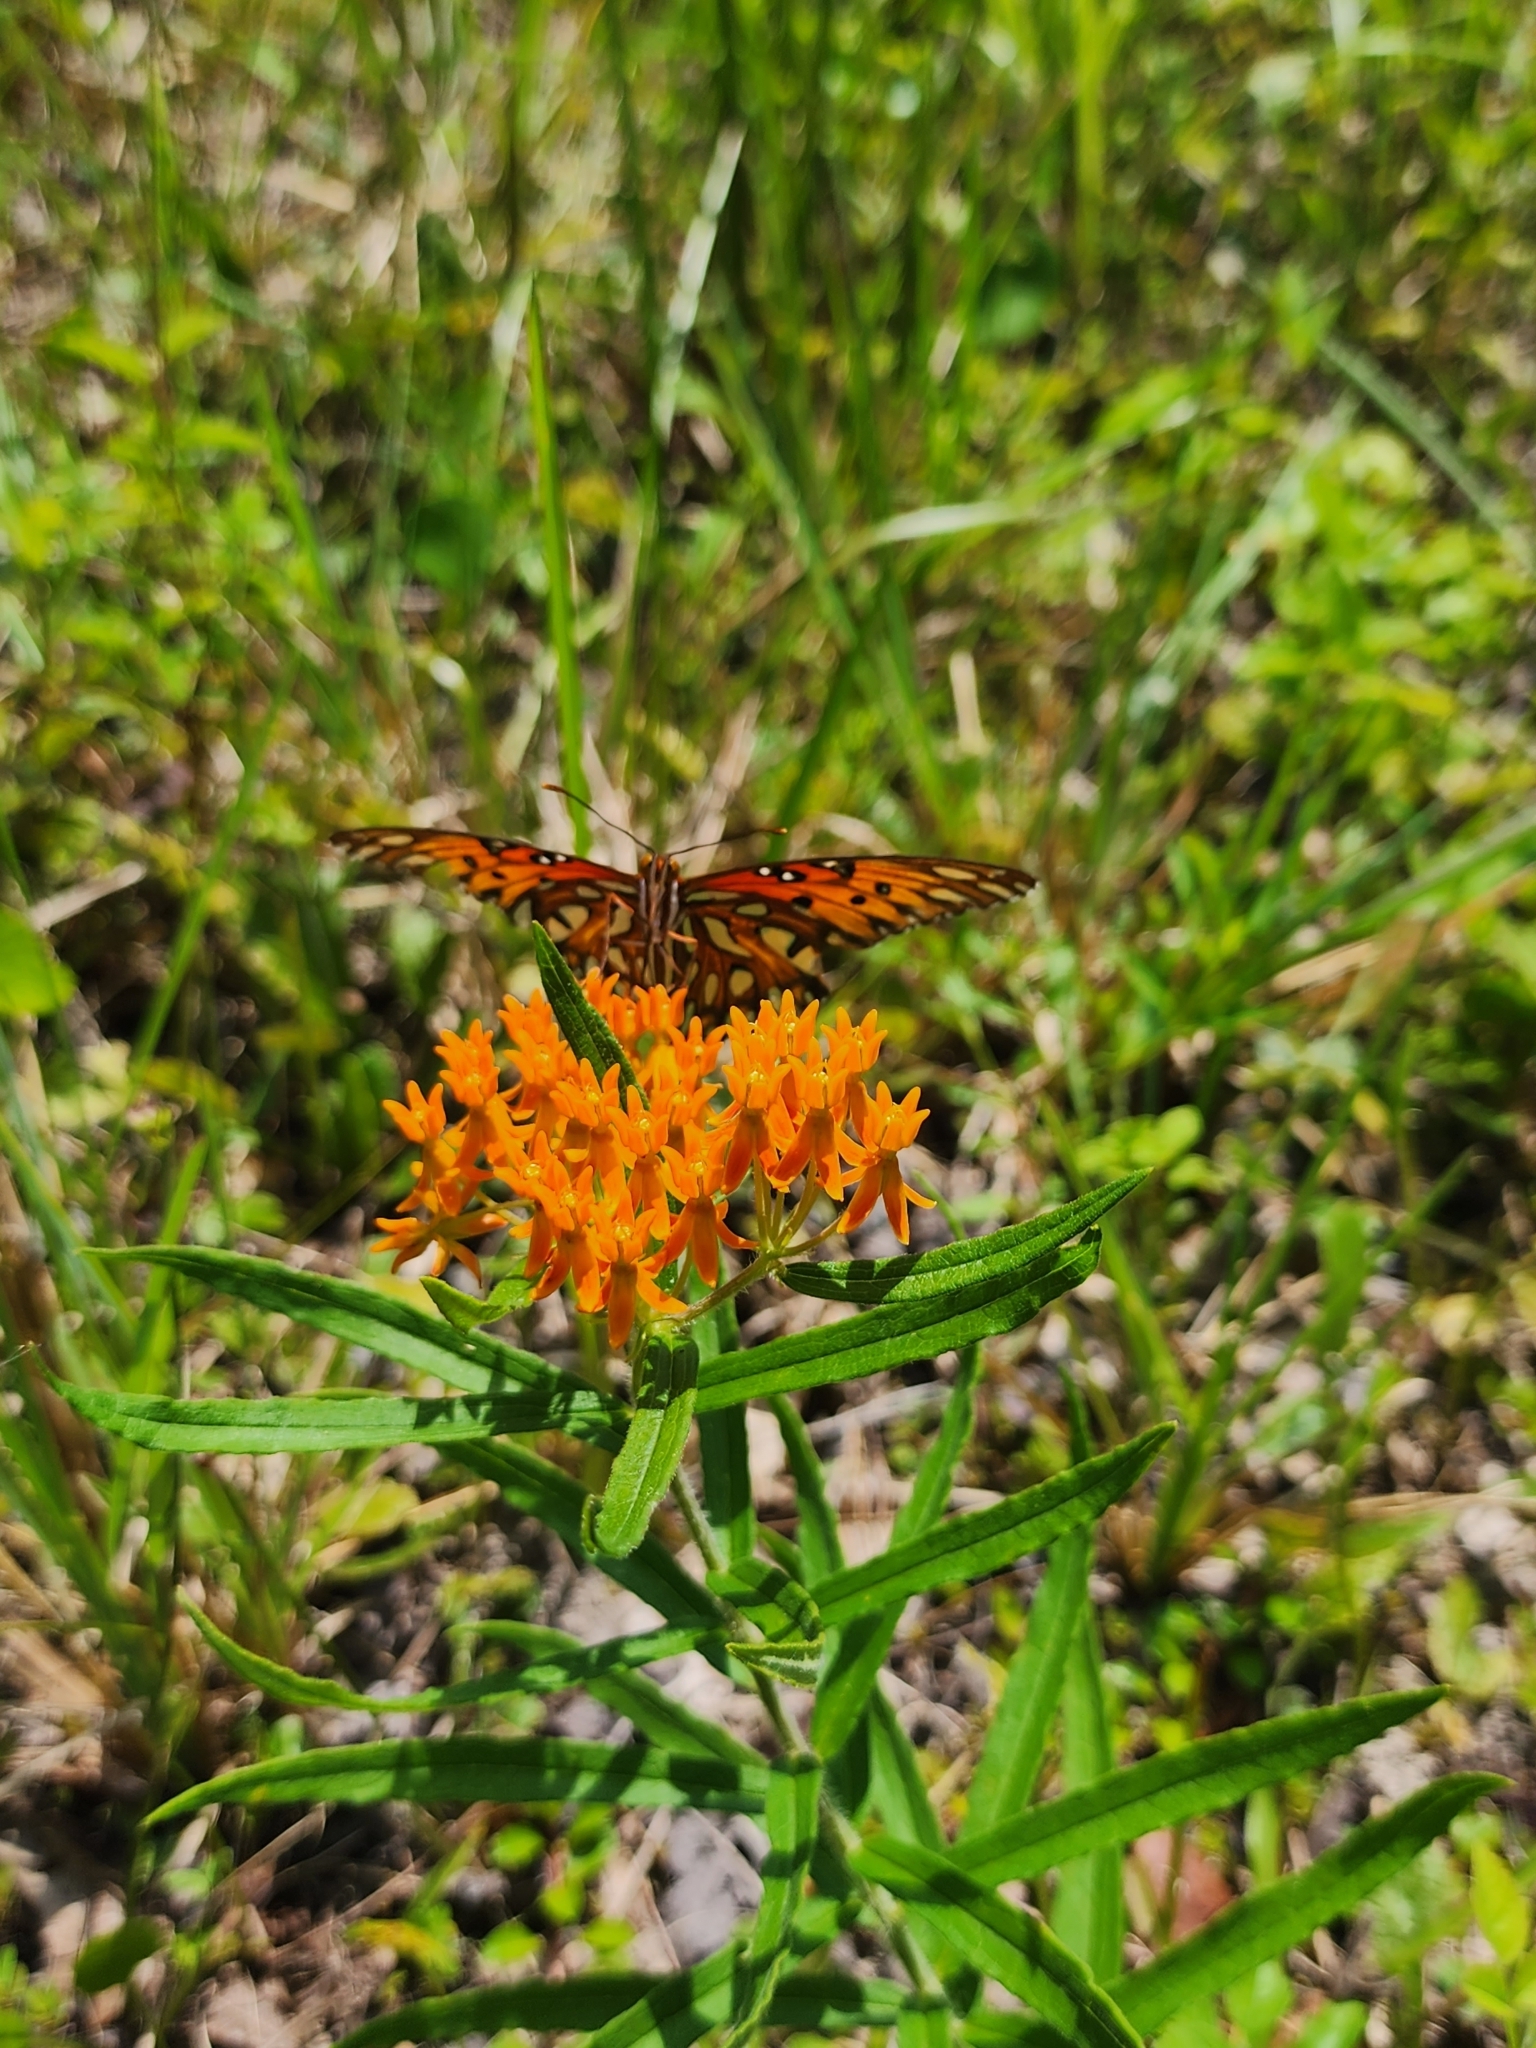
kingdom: Plantae
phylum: Tracheophyta
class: Magnoliopsida
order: Gentianales
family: Apocynaceae
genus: Asclepias
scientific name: Asclepias tuberosa
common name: Butterfly milkweed
